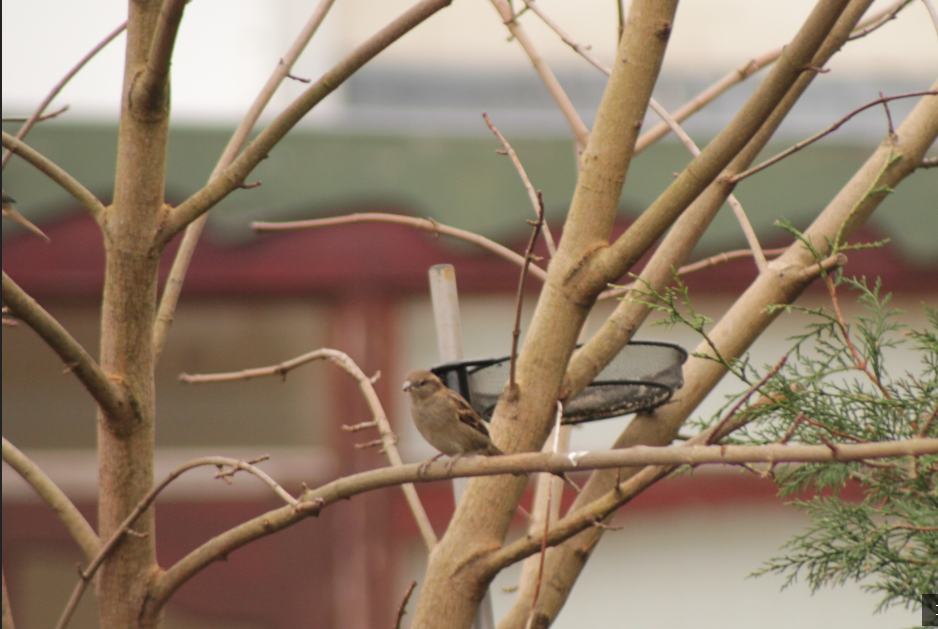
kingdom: Animalia
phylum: Chordata
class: Aves
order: Passeriformes
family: Passeridae
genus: Passer
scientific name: Passer domesticus
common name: House sparrow
